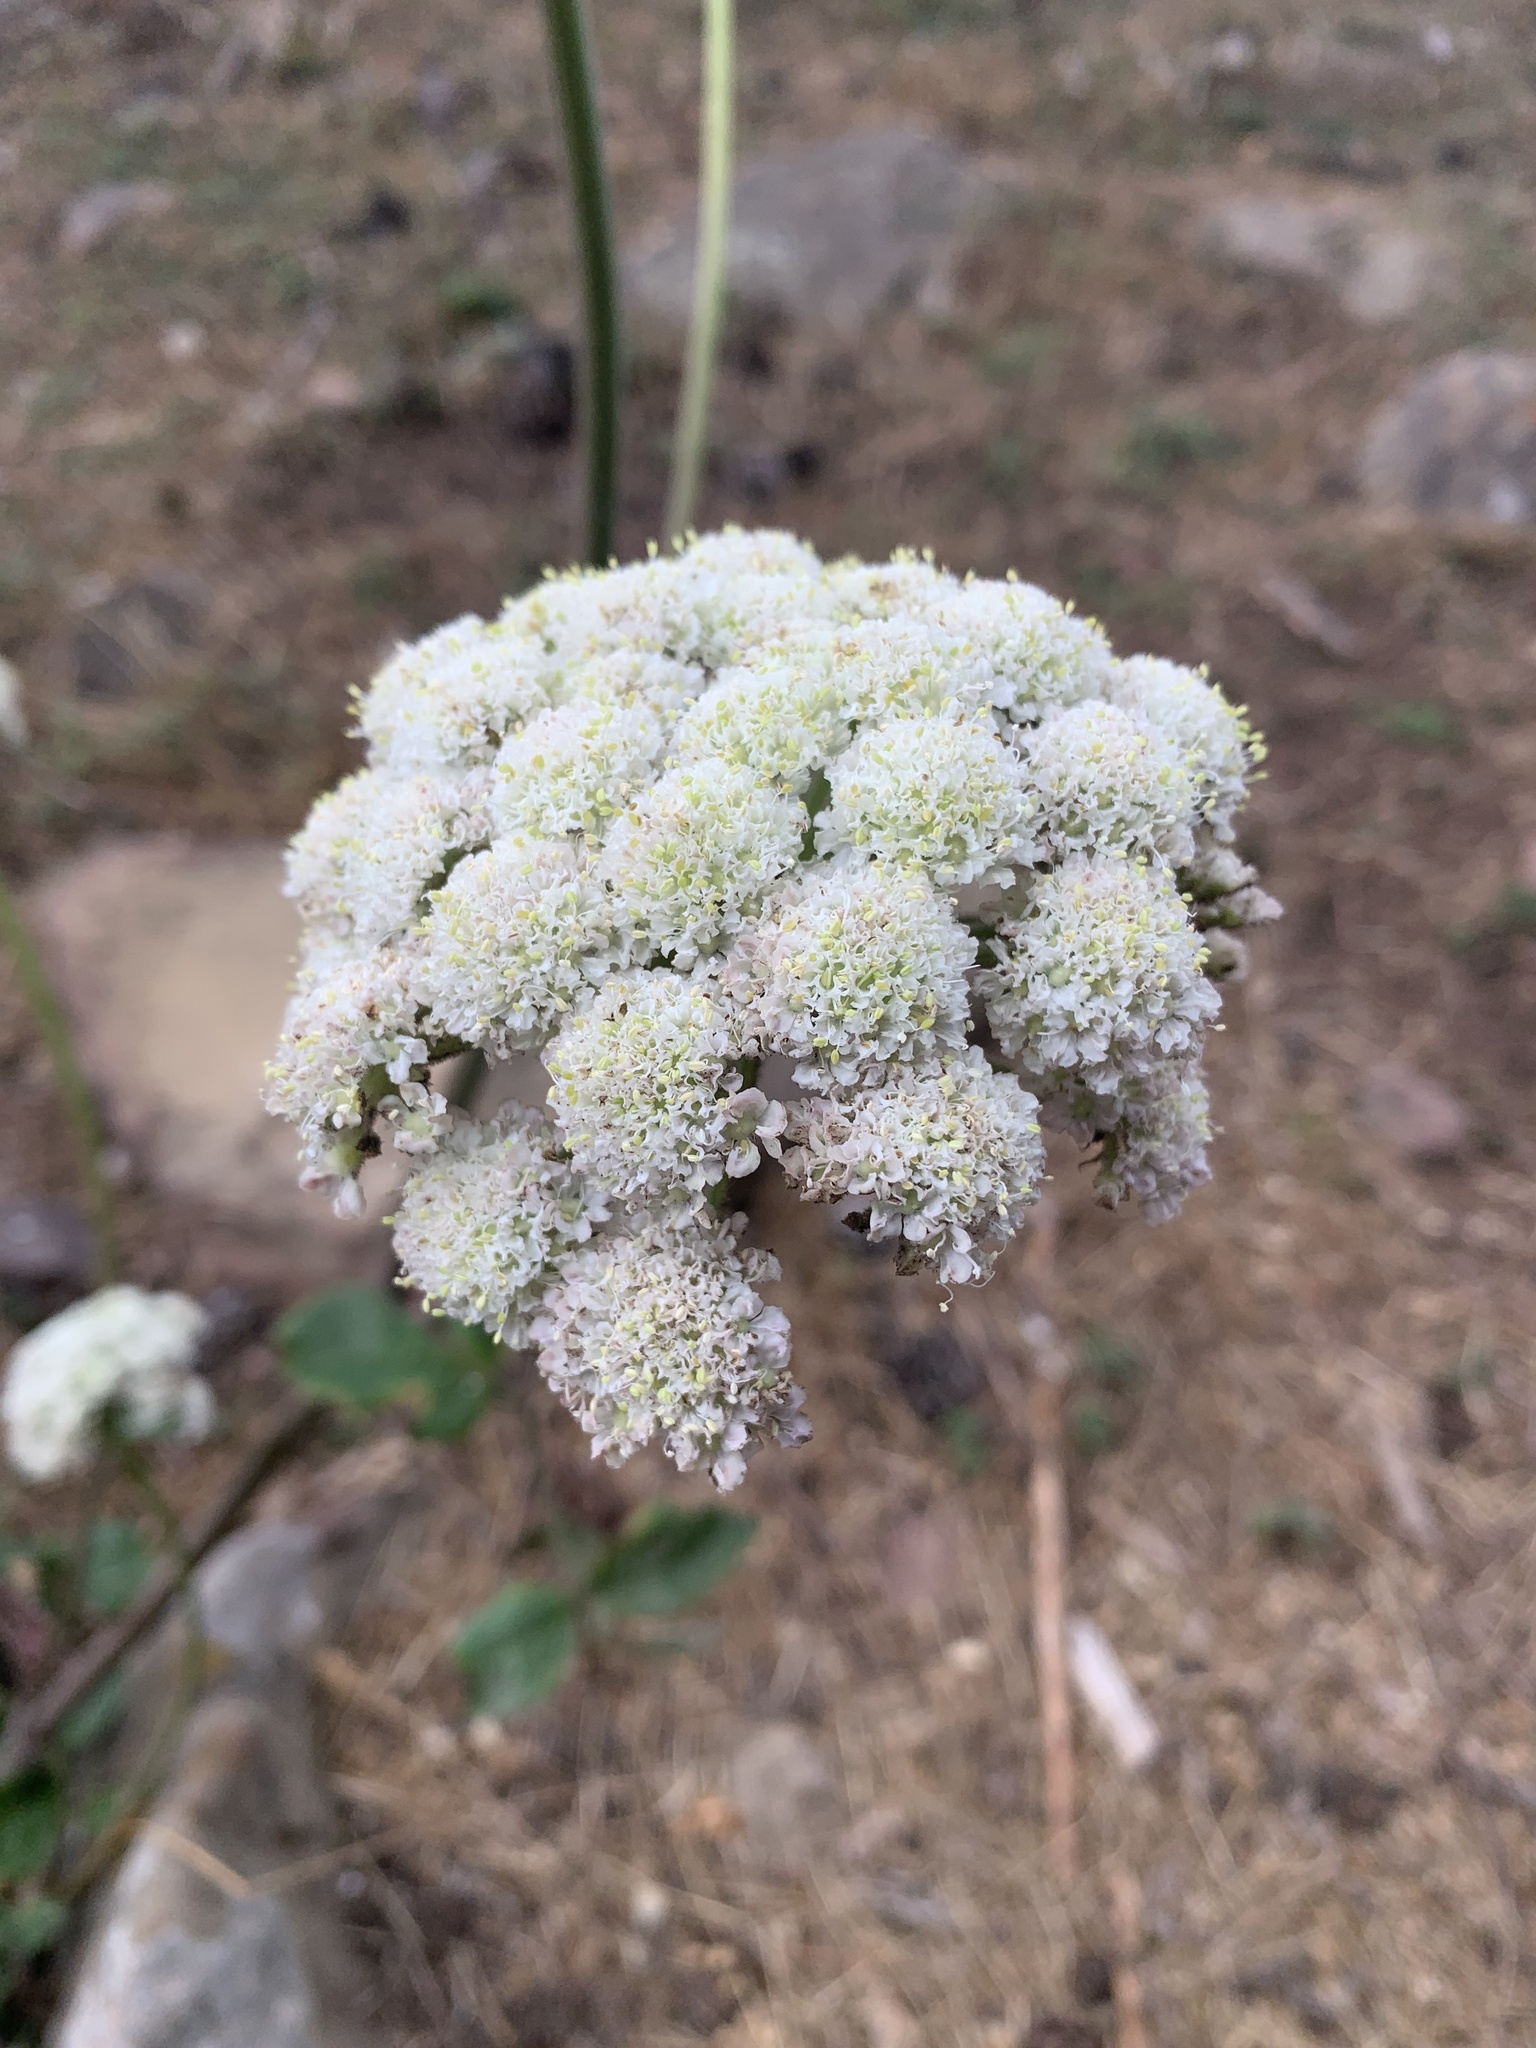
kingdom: Plantae
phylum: Tracheophyta
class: Magnoliopsida
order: Apiales
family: Apiaceae
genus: Angelica
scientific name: Angelica hendersonii
